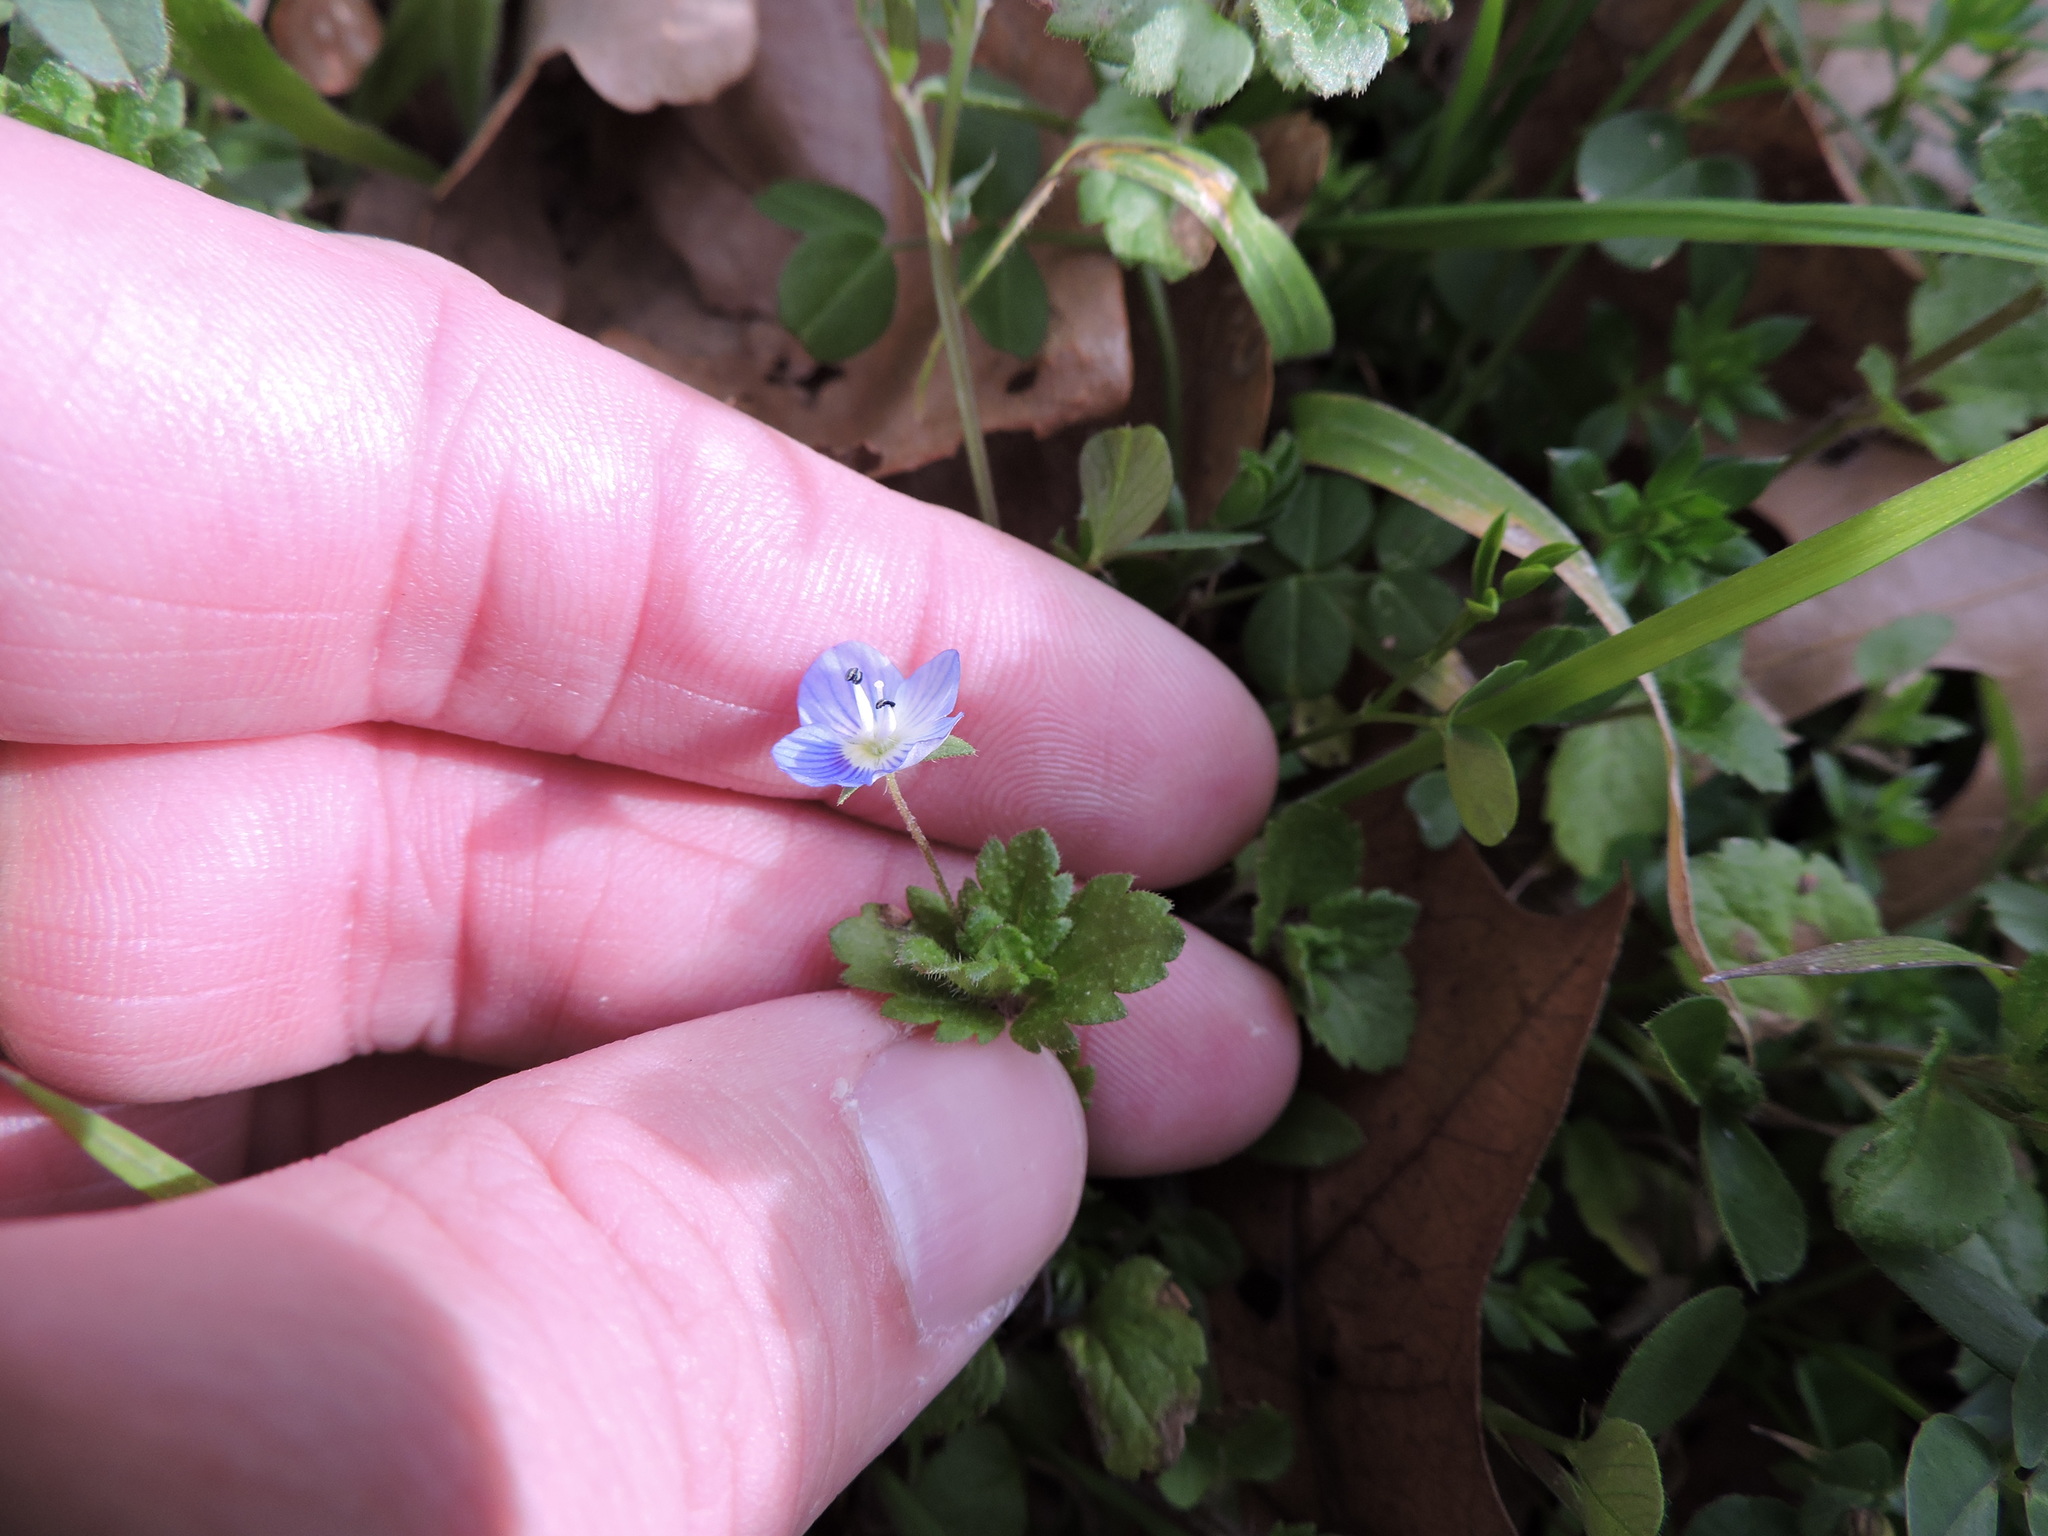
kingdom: Plantae
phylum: Tracheophyta
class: Magnoliopsida
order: Lamiales
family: Plantaginaceae
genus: Veronica
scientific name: Veronica persica
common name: Common field-speedwell
